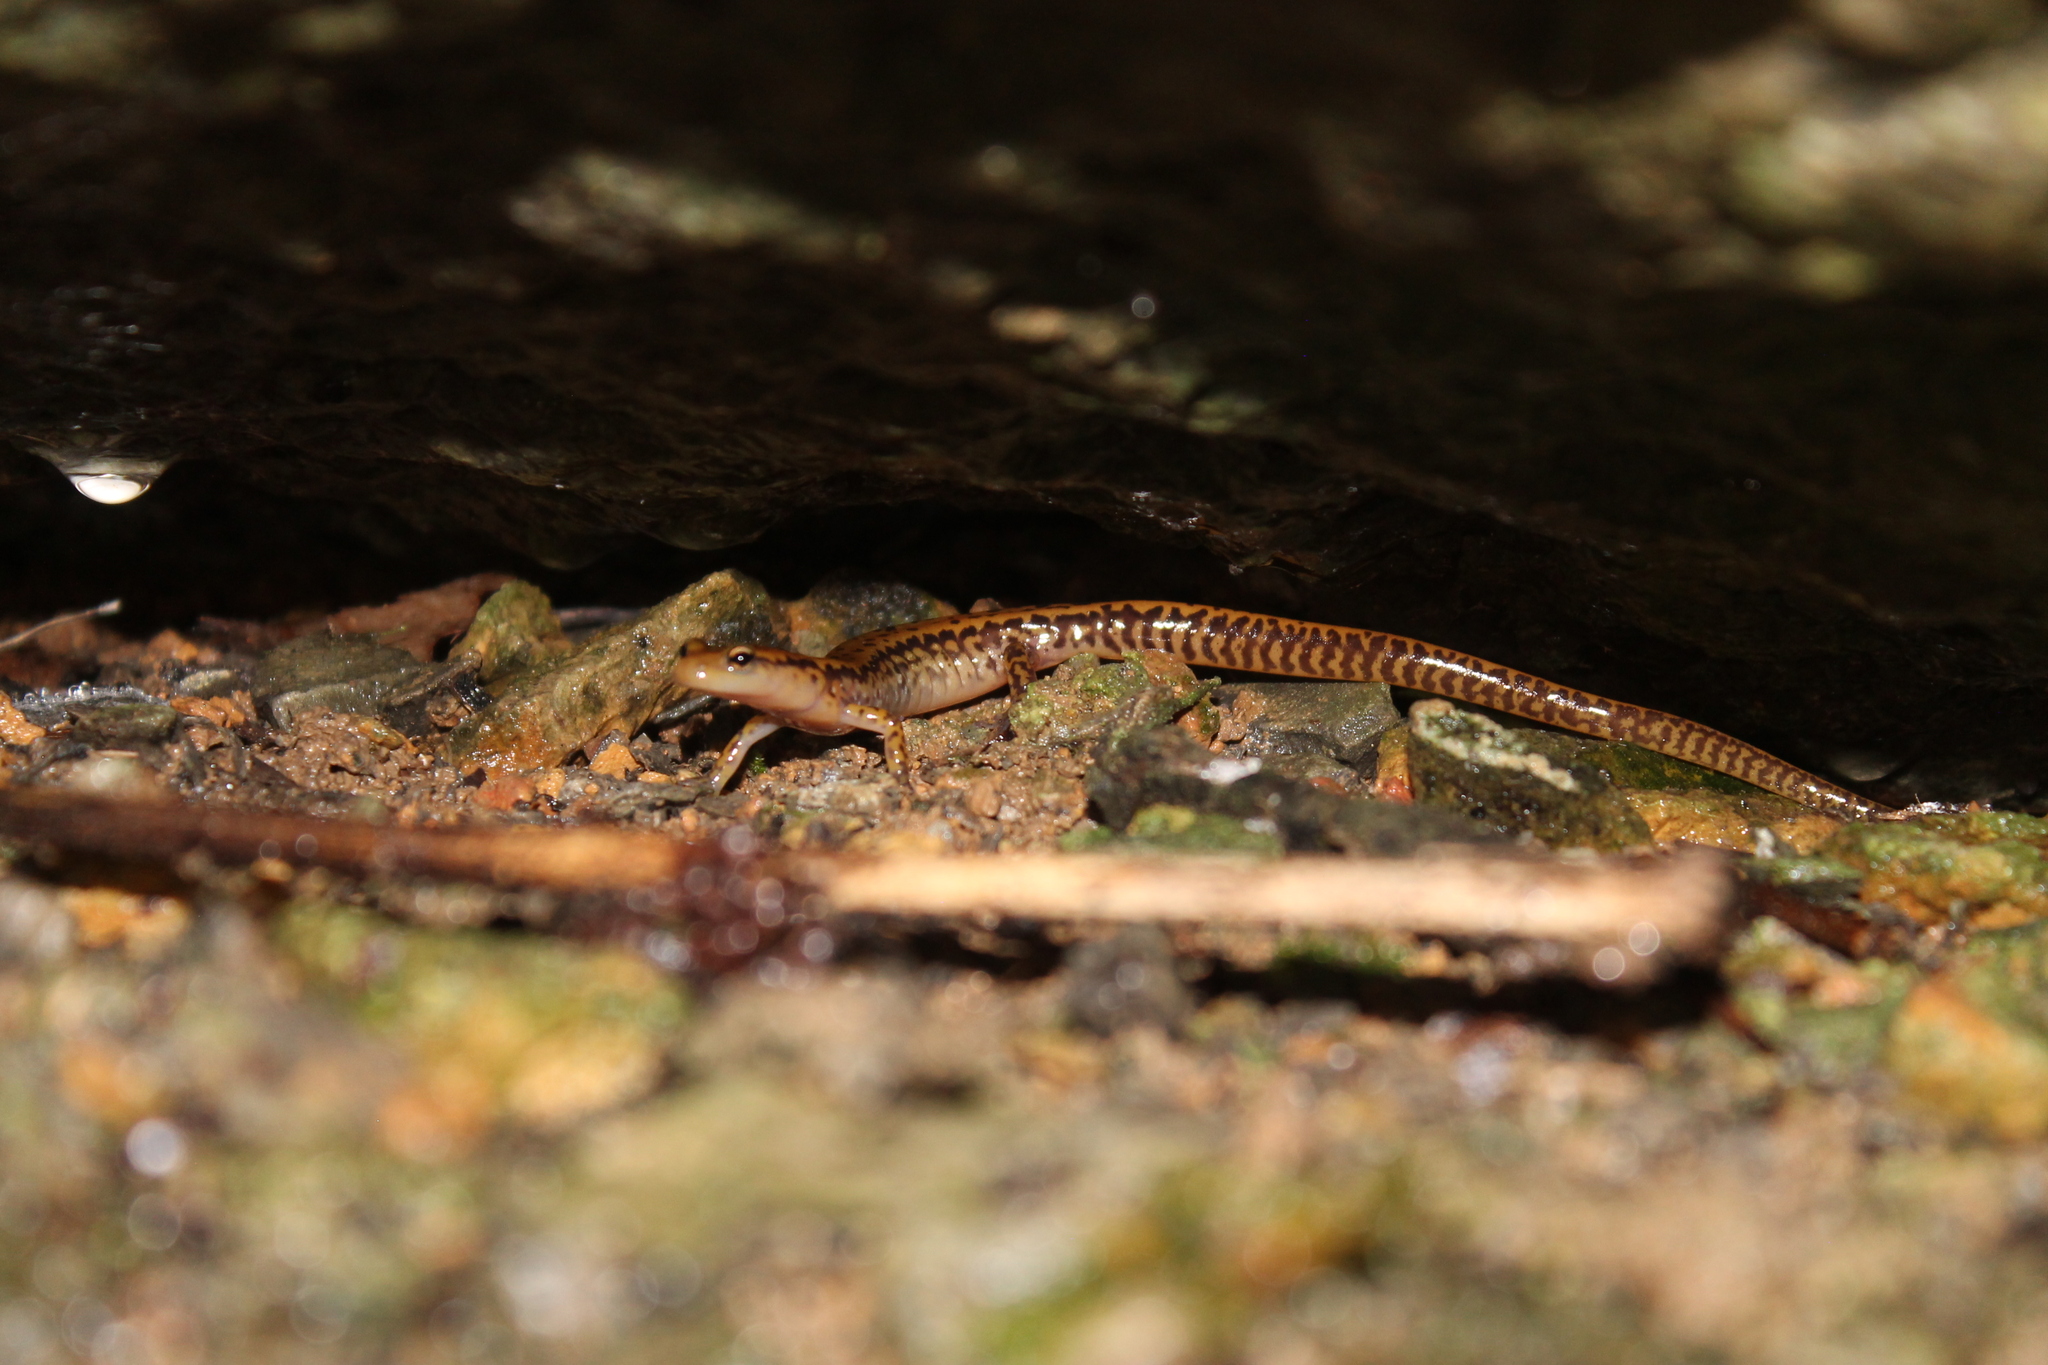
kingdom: Animalia
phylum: Chordata
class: Amphibia
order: Caudata
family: Plethodontidae
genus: Eurycea
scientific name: Eurycea longicauda
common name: Long-tailed salamander
